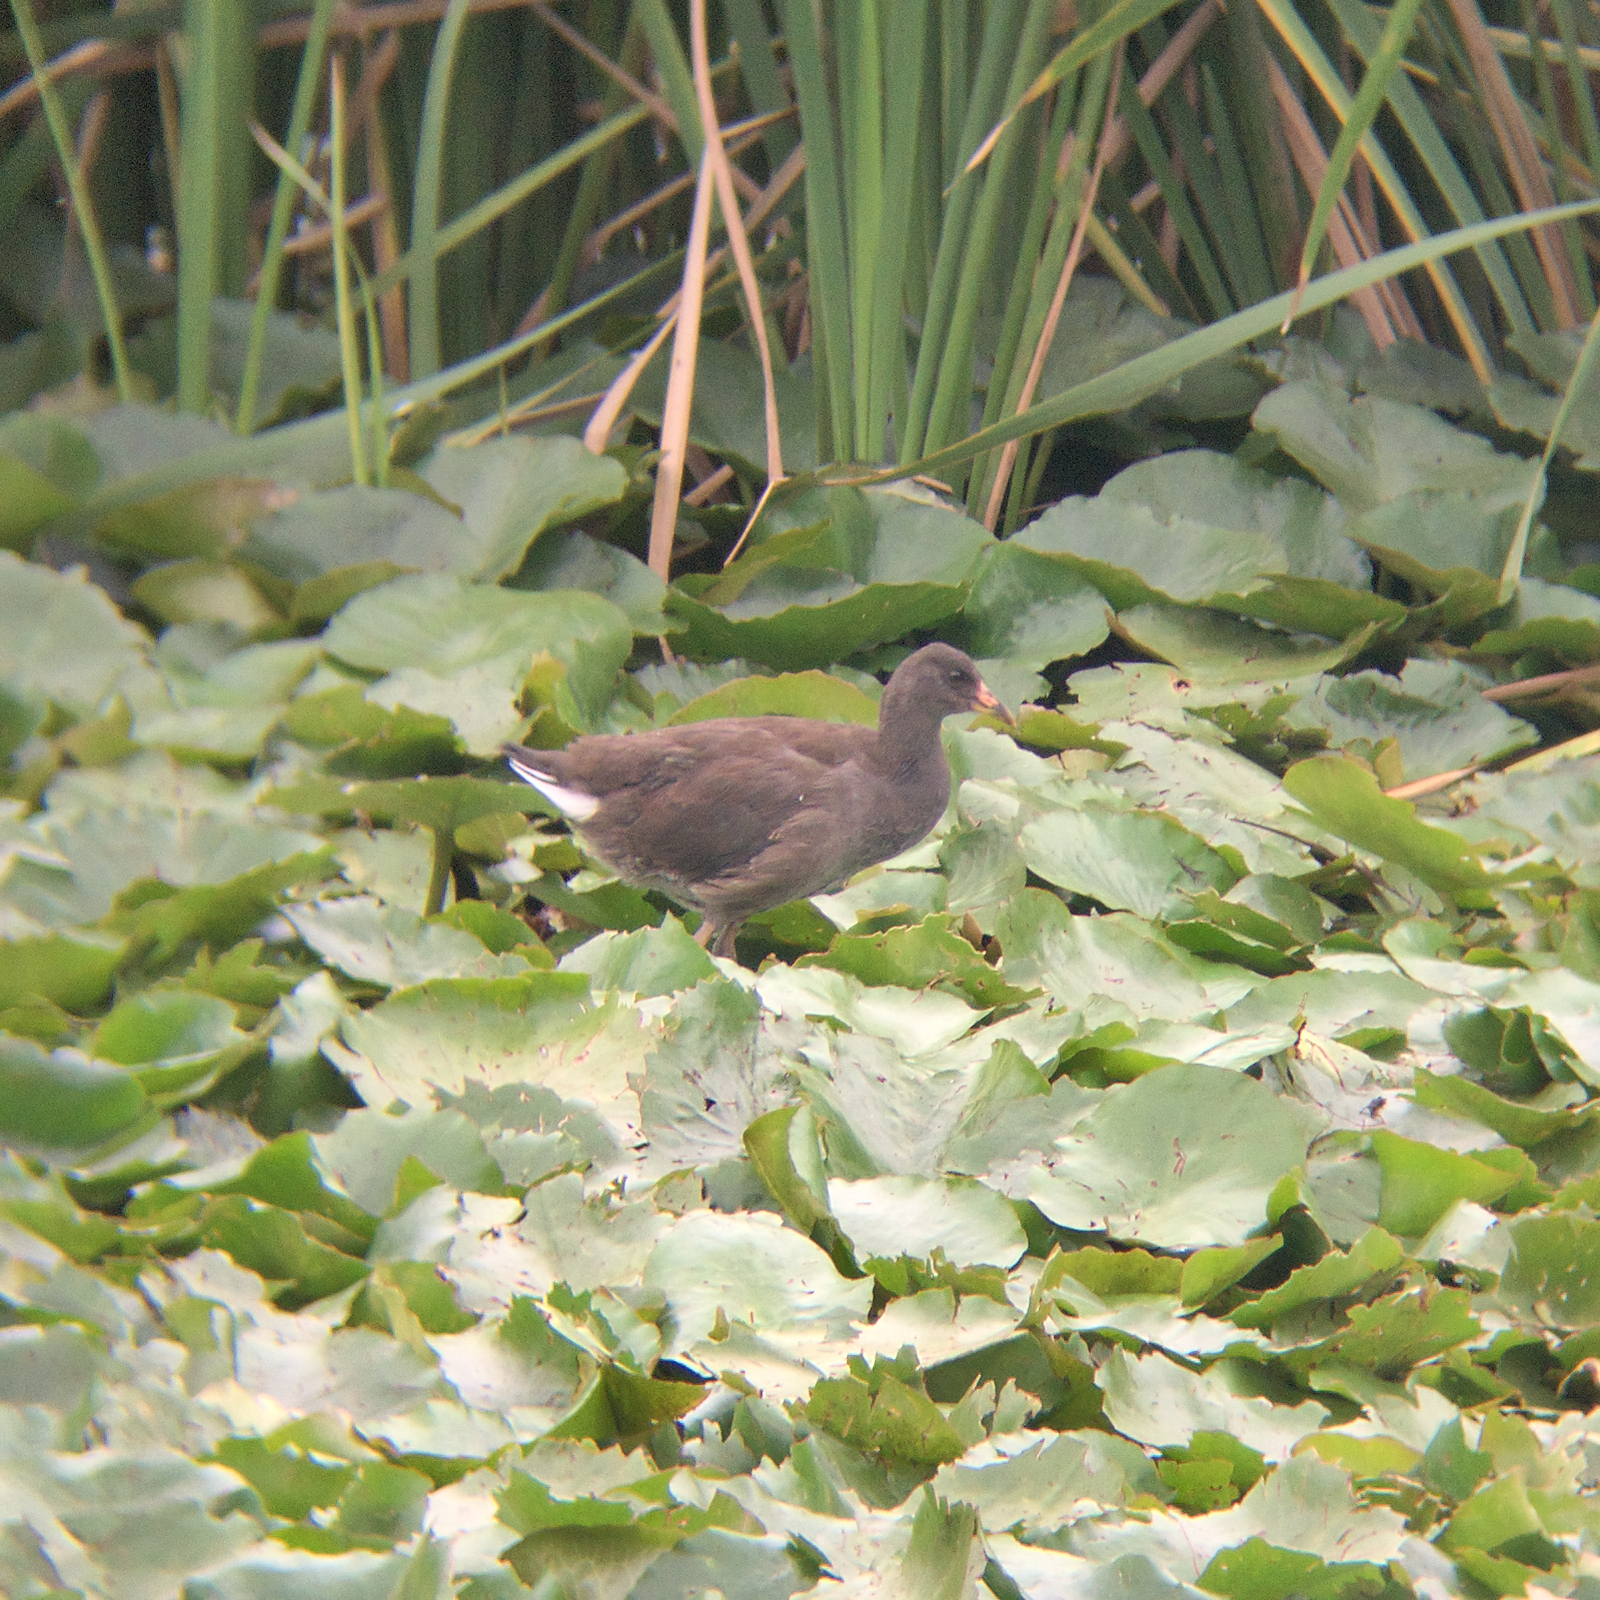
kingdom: Animalia
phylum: Chordata
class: Aves
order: Gruiformes
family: Rallidae
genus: Gallinula
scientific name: Gallinula tenebrosa
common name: Dusky moorhen
